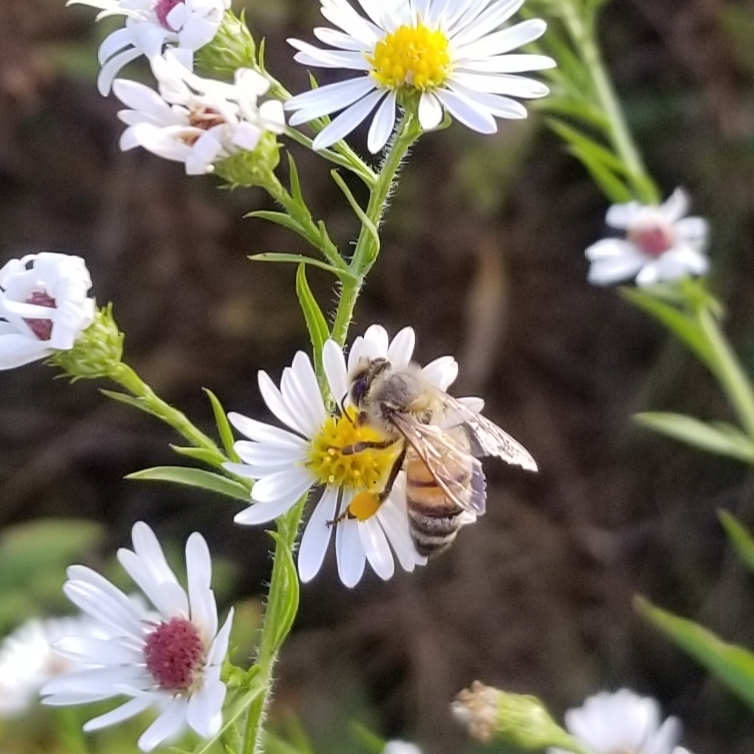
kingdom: Animalia
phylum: Arthropoda
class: Insecta
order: Hymenoptera
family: Apidae
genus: Apis
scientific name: Apis mellifera
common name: Honey bee
